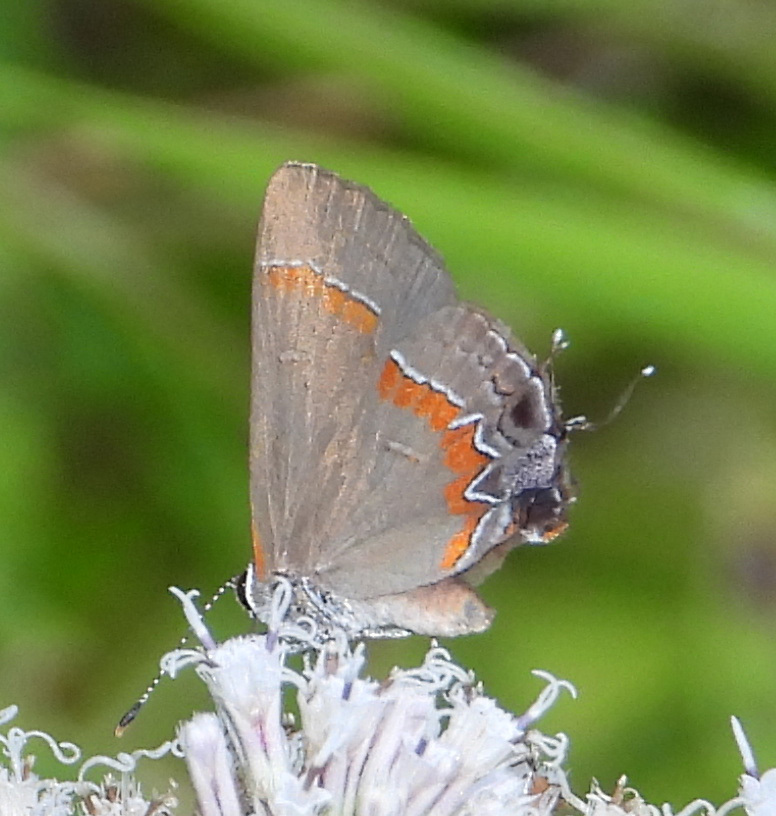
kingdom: Animalia
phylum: Arthropoda
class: Insecta
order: Lepidoptera
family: Lycaenidae
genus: Calycopis
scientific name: Calycopis cecrops
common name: Red-banded hairstreak
